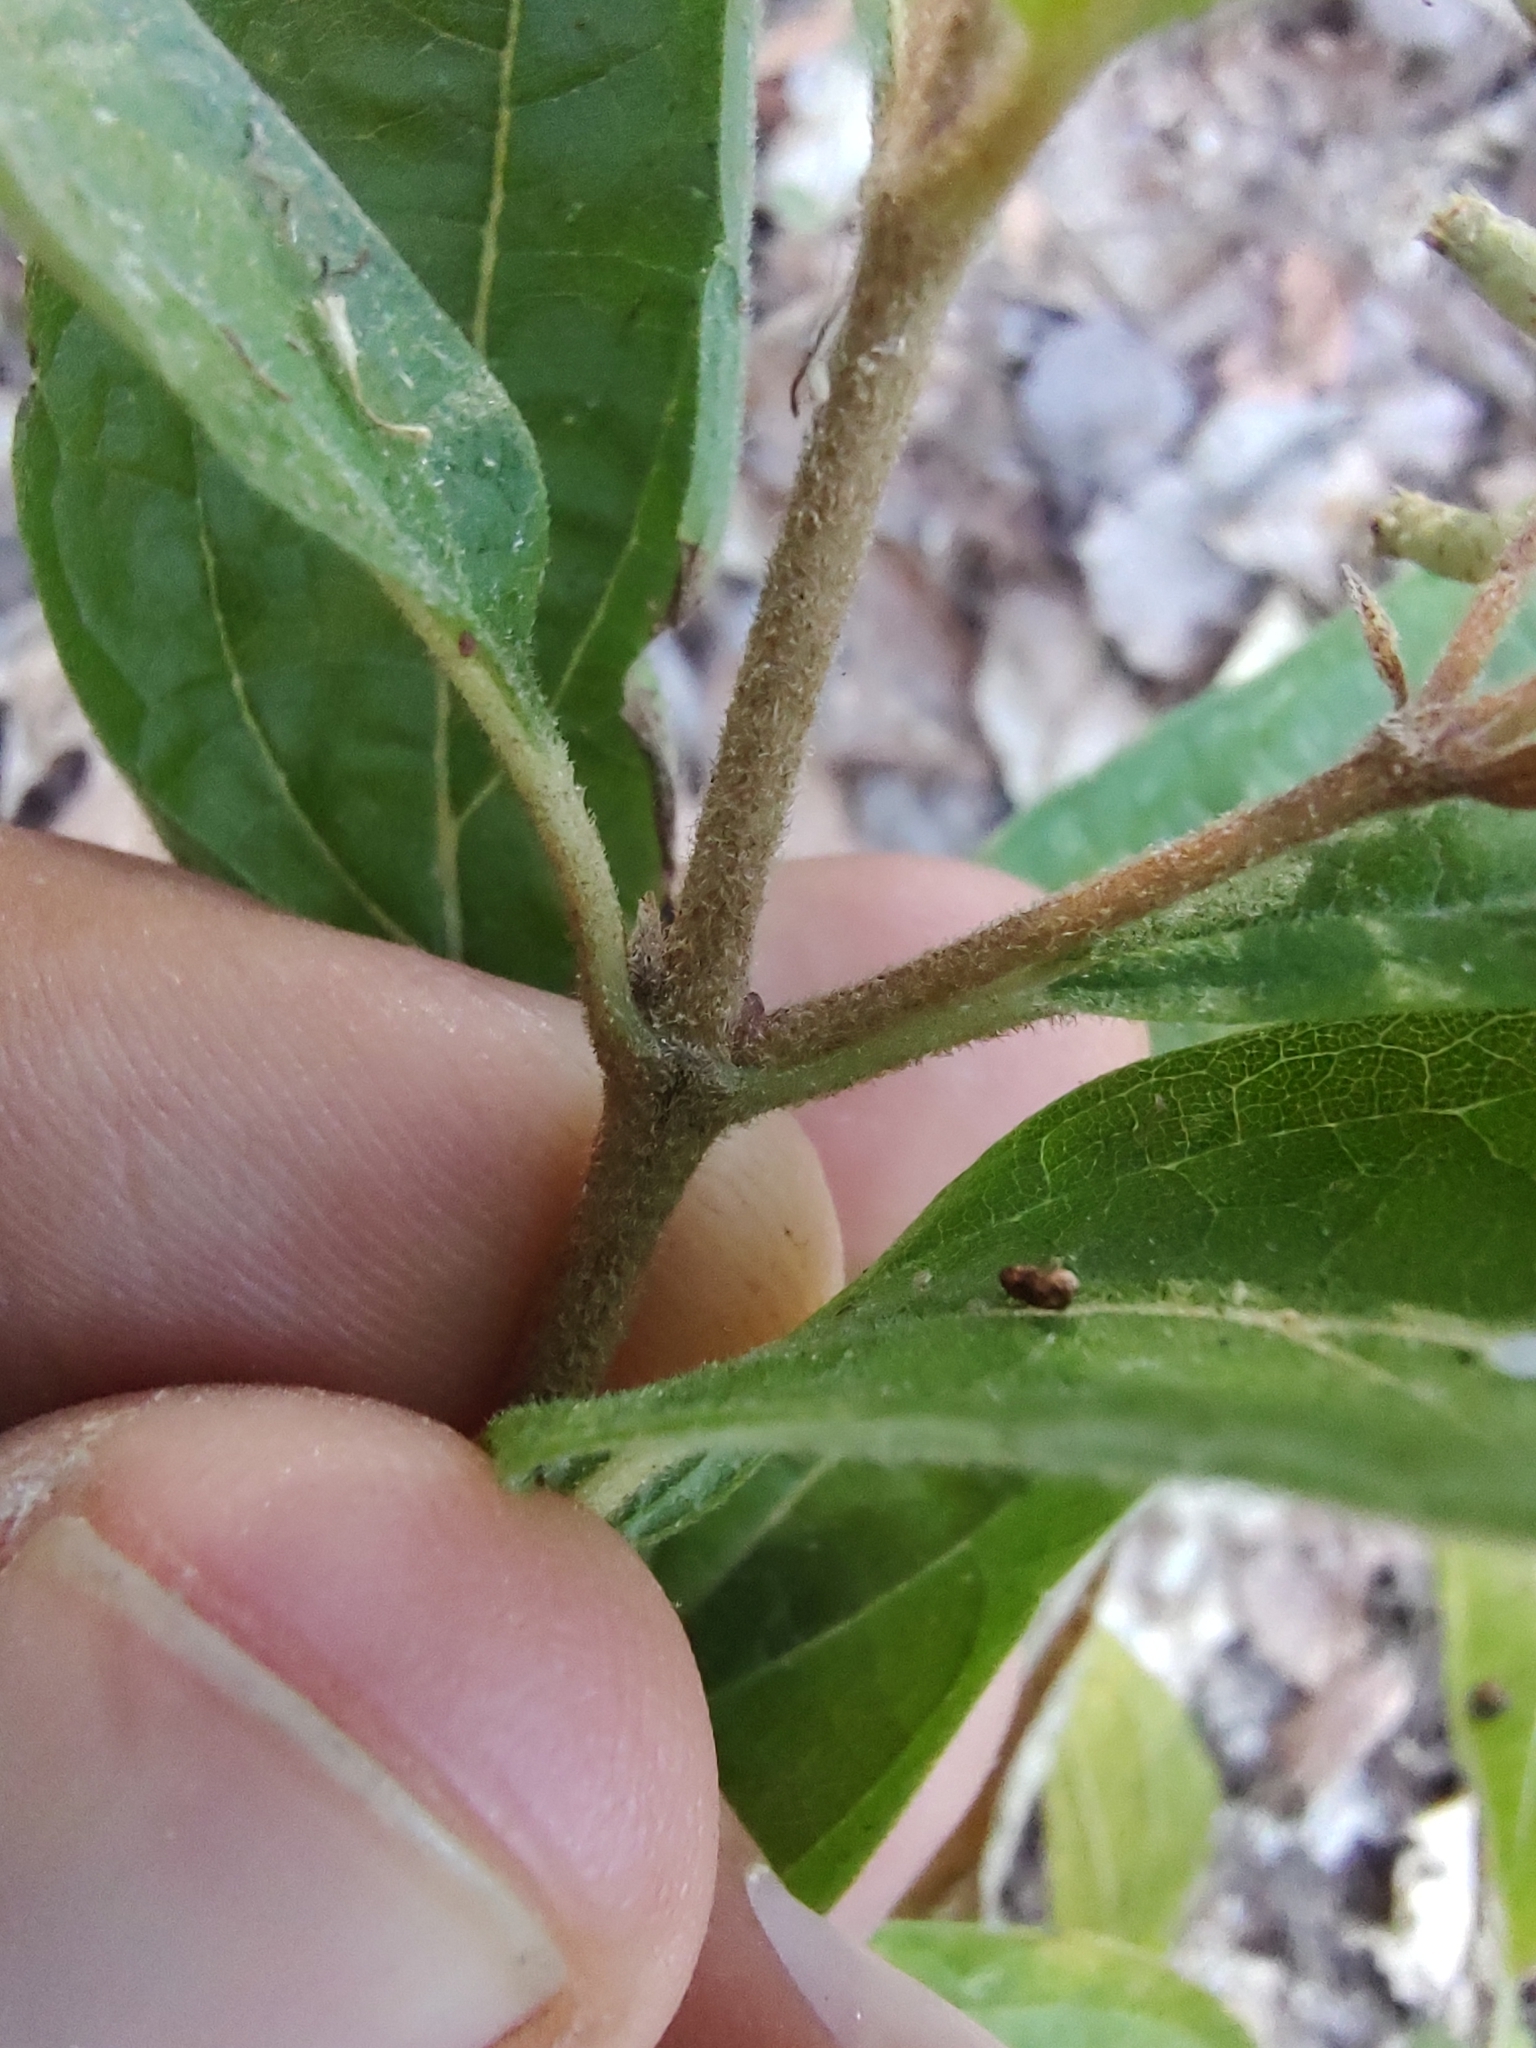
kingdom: Plantae
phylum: Tracheophyta
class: Magnoliopsida
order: Asterales
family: Asteraceae
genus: Chromolaena
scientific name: Chromolaena ovaliflora
